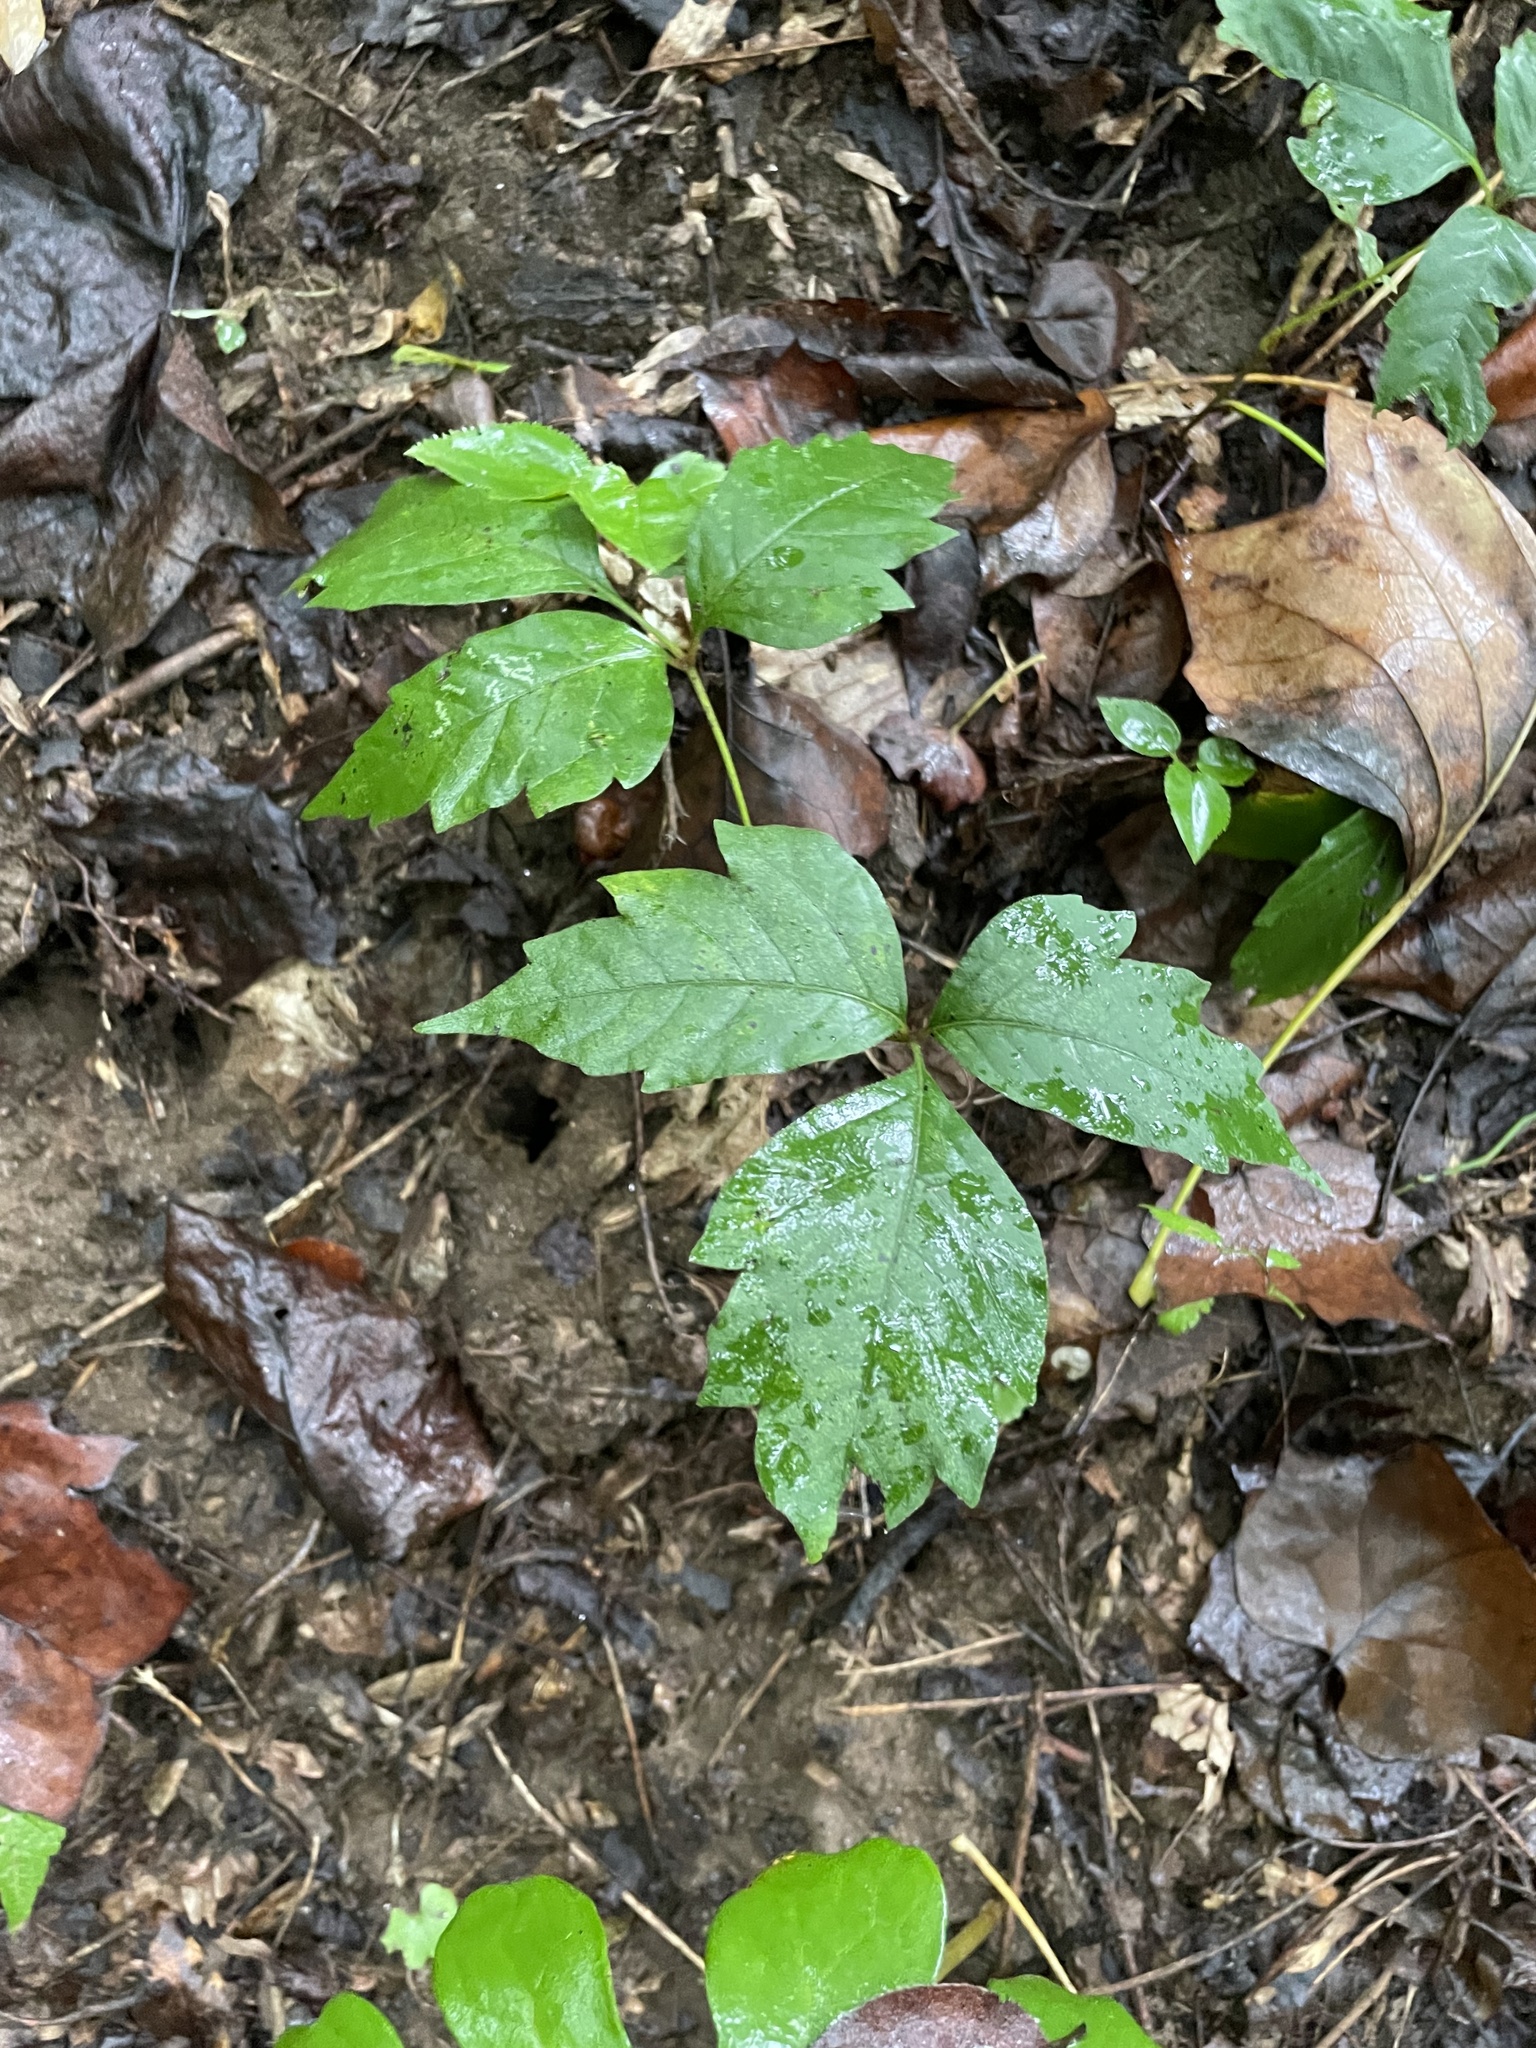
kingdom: Plantae
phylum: Tracheophyta
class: Magnoliopsida
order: Sapindales
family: Anacardiaceae
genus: Toxicodendron
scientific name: Toxicodendron radicans
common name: Poison ivy
